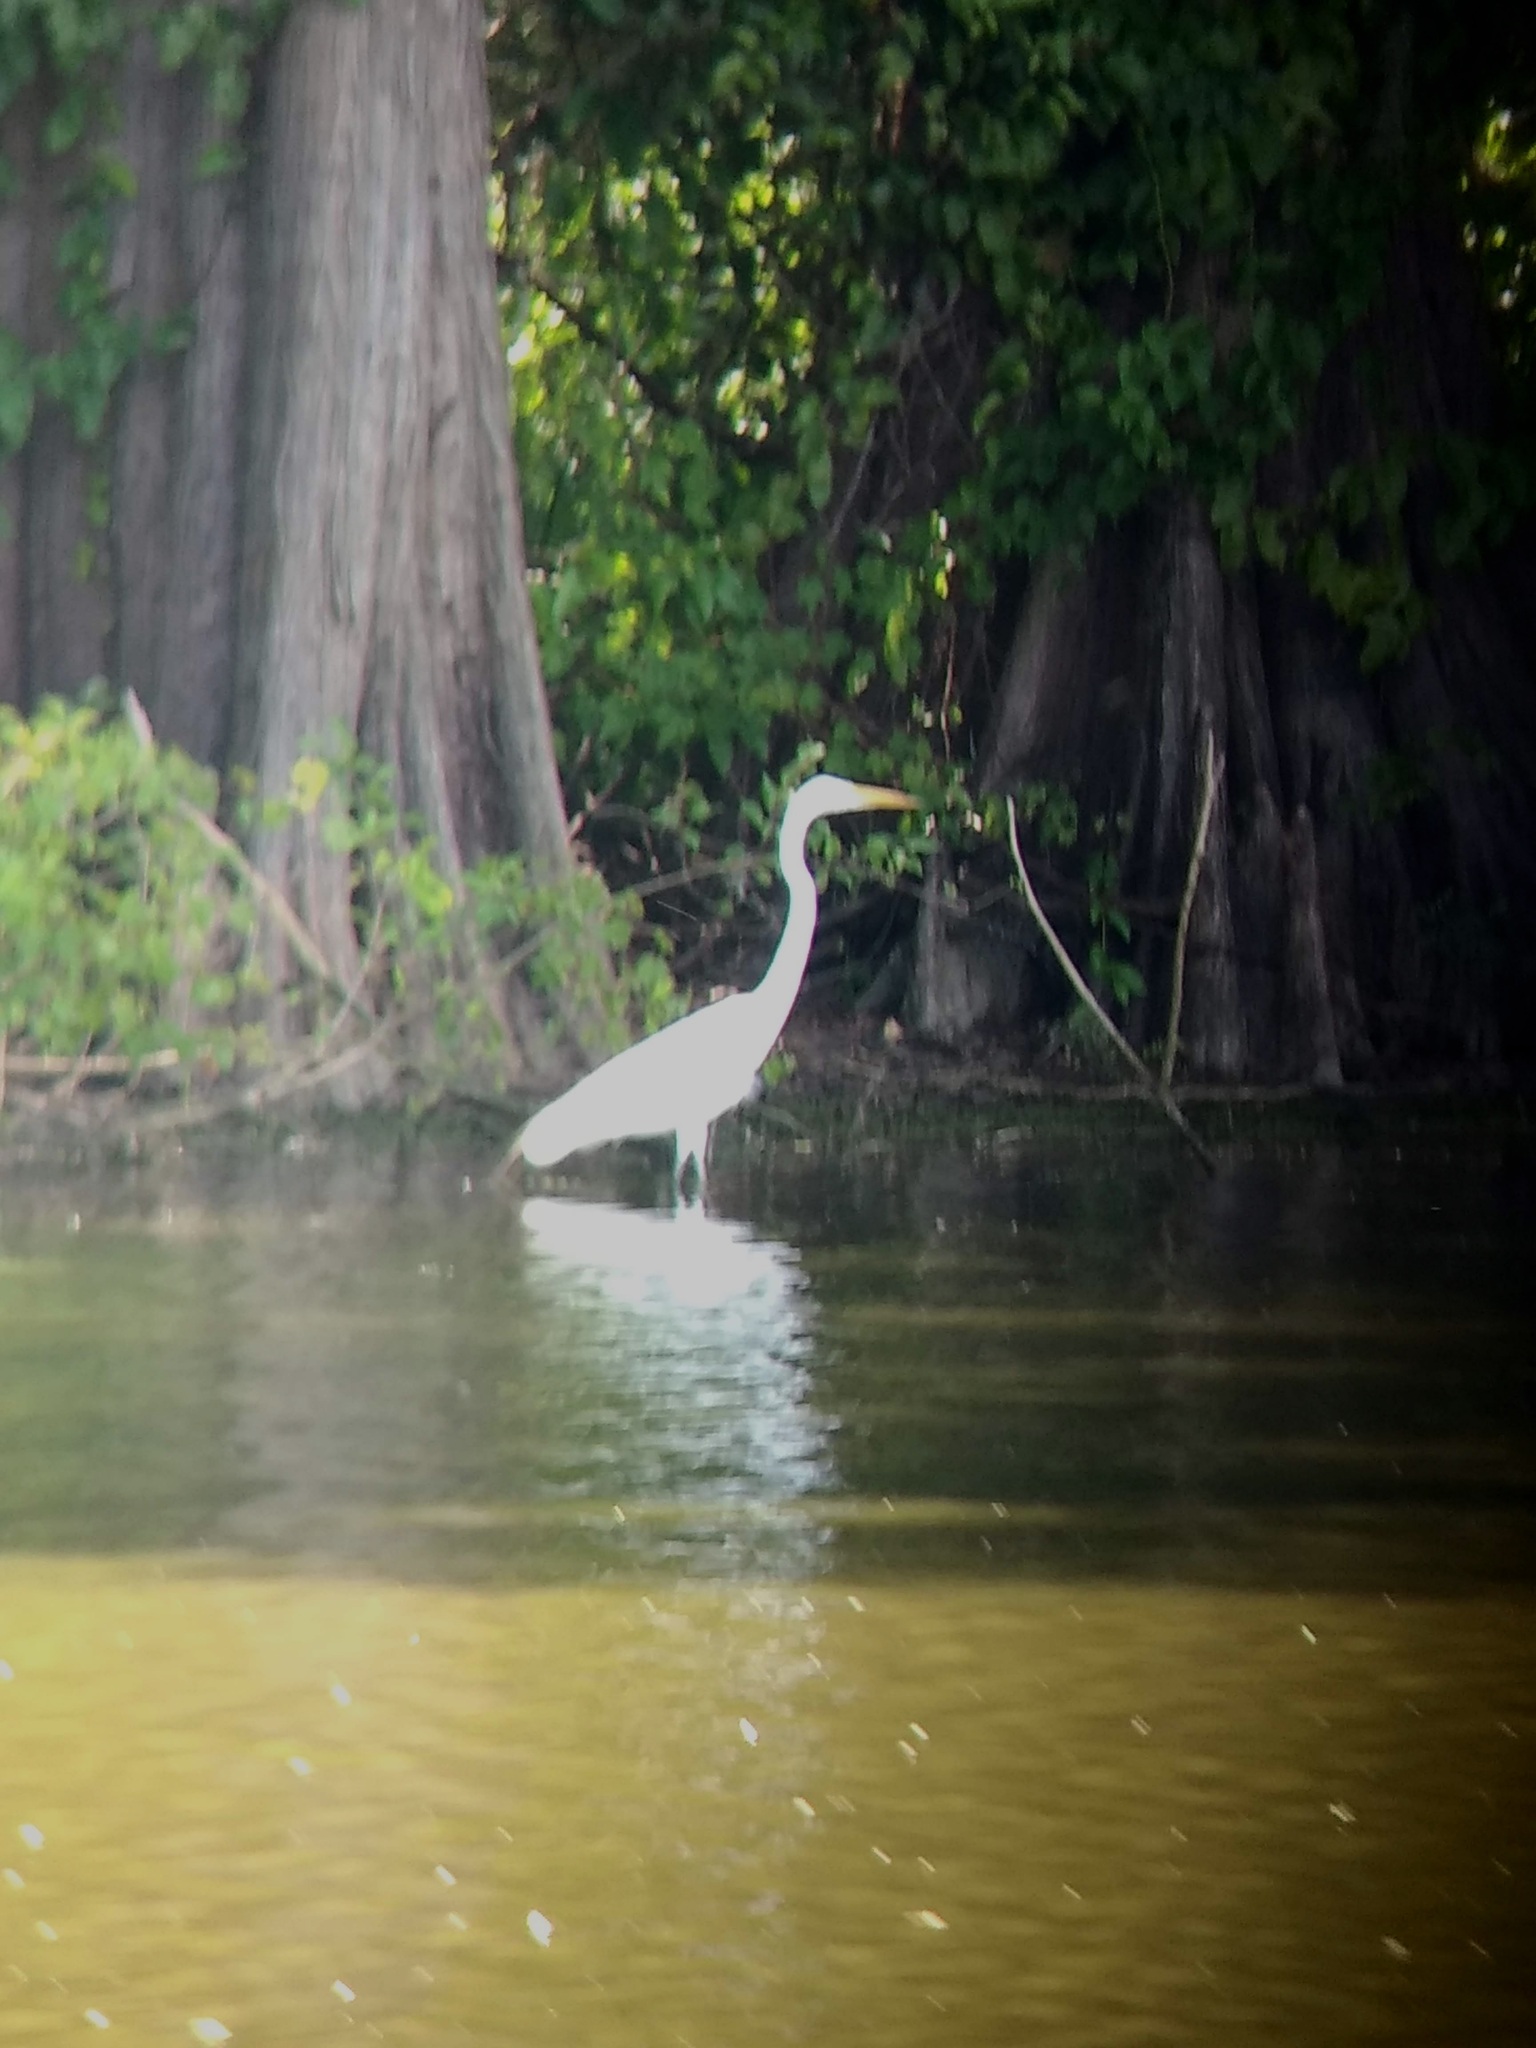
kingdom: Animalia
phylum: Chordata
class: Aves
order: Pelecaniformes
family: Ardeidae
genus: Ardea
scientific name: Ardea alba
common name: Great egret
